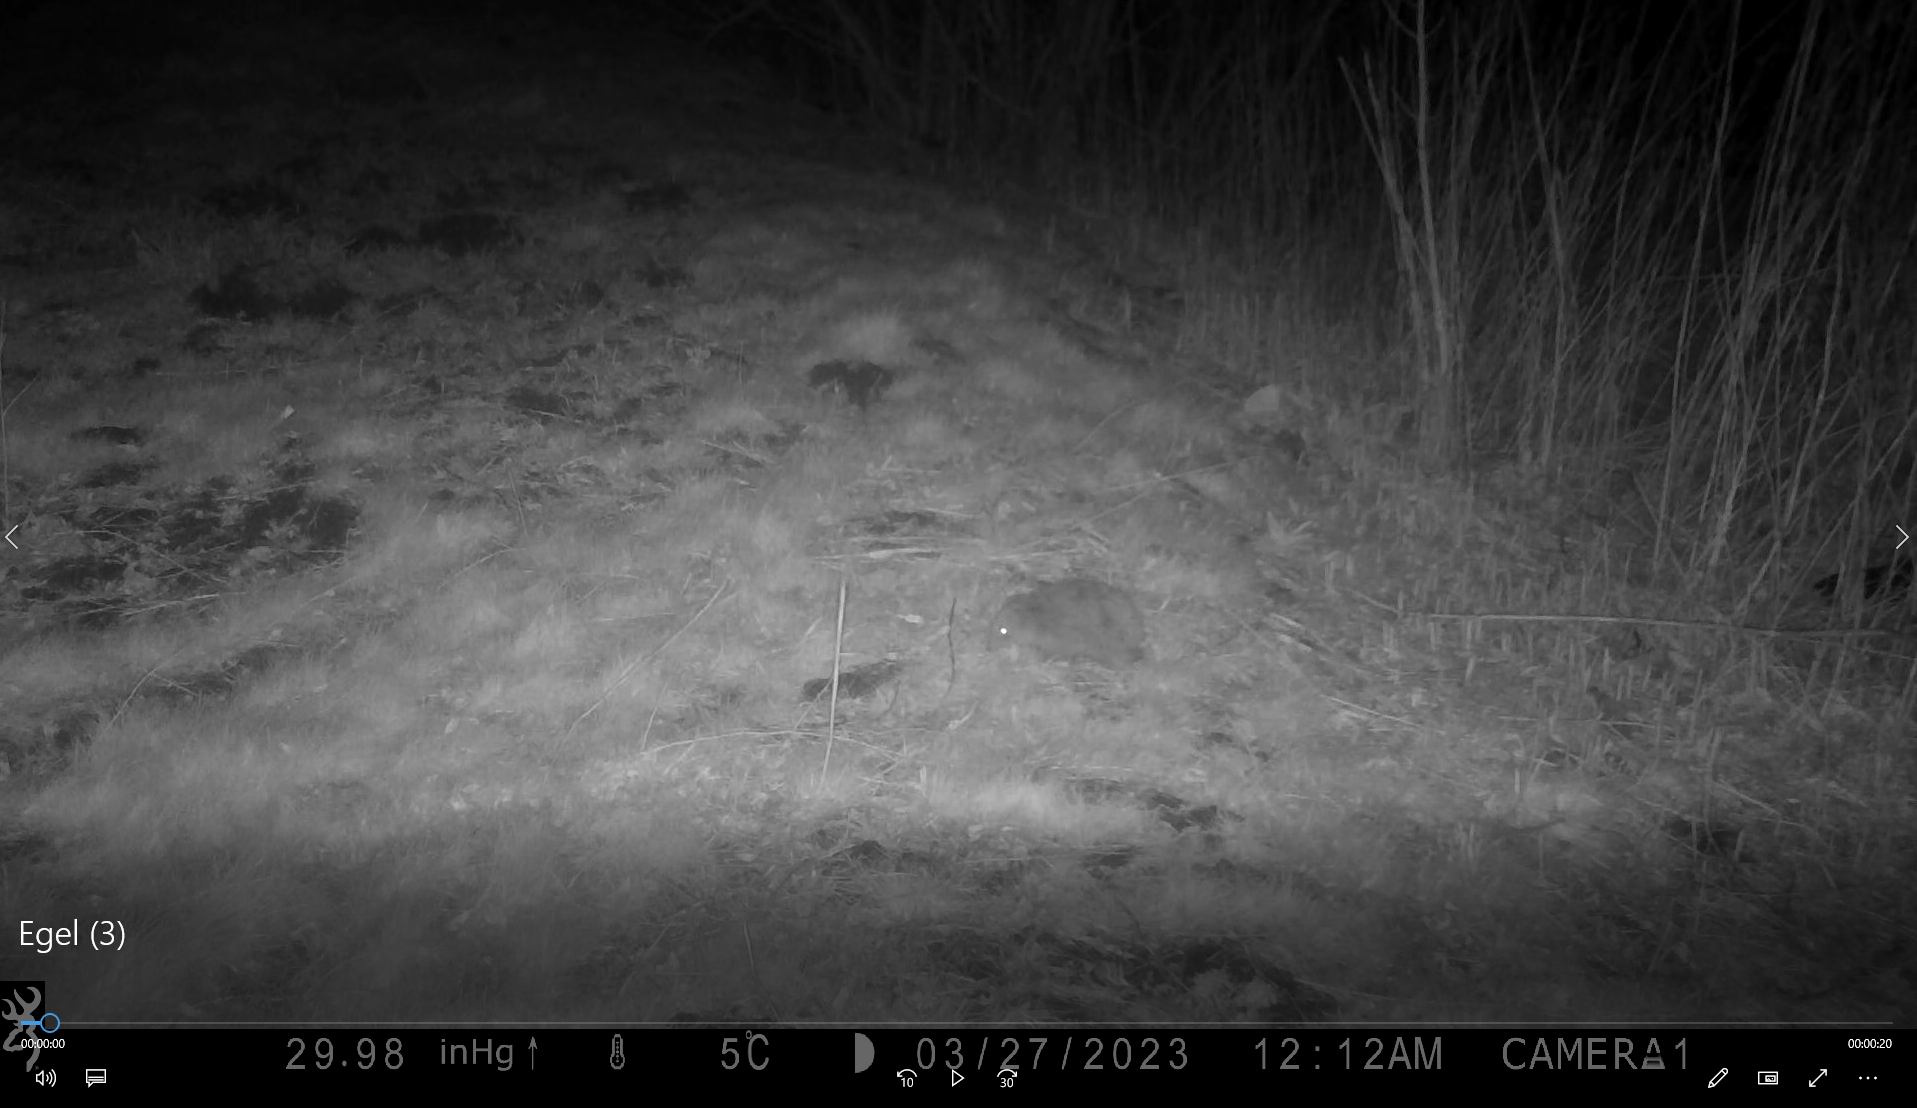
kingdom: Animalia
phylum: Chordata
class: Mammalia
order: Erinaceomorpha
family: Erinaceidae
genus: Erinaceus
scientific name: Erinaceus europaeus
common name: West european hedgehog
